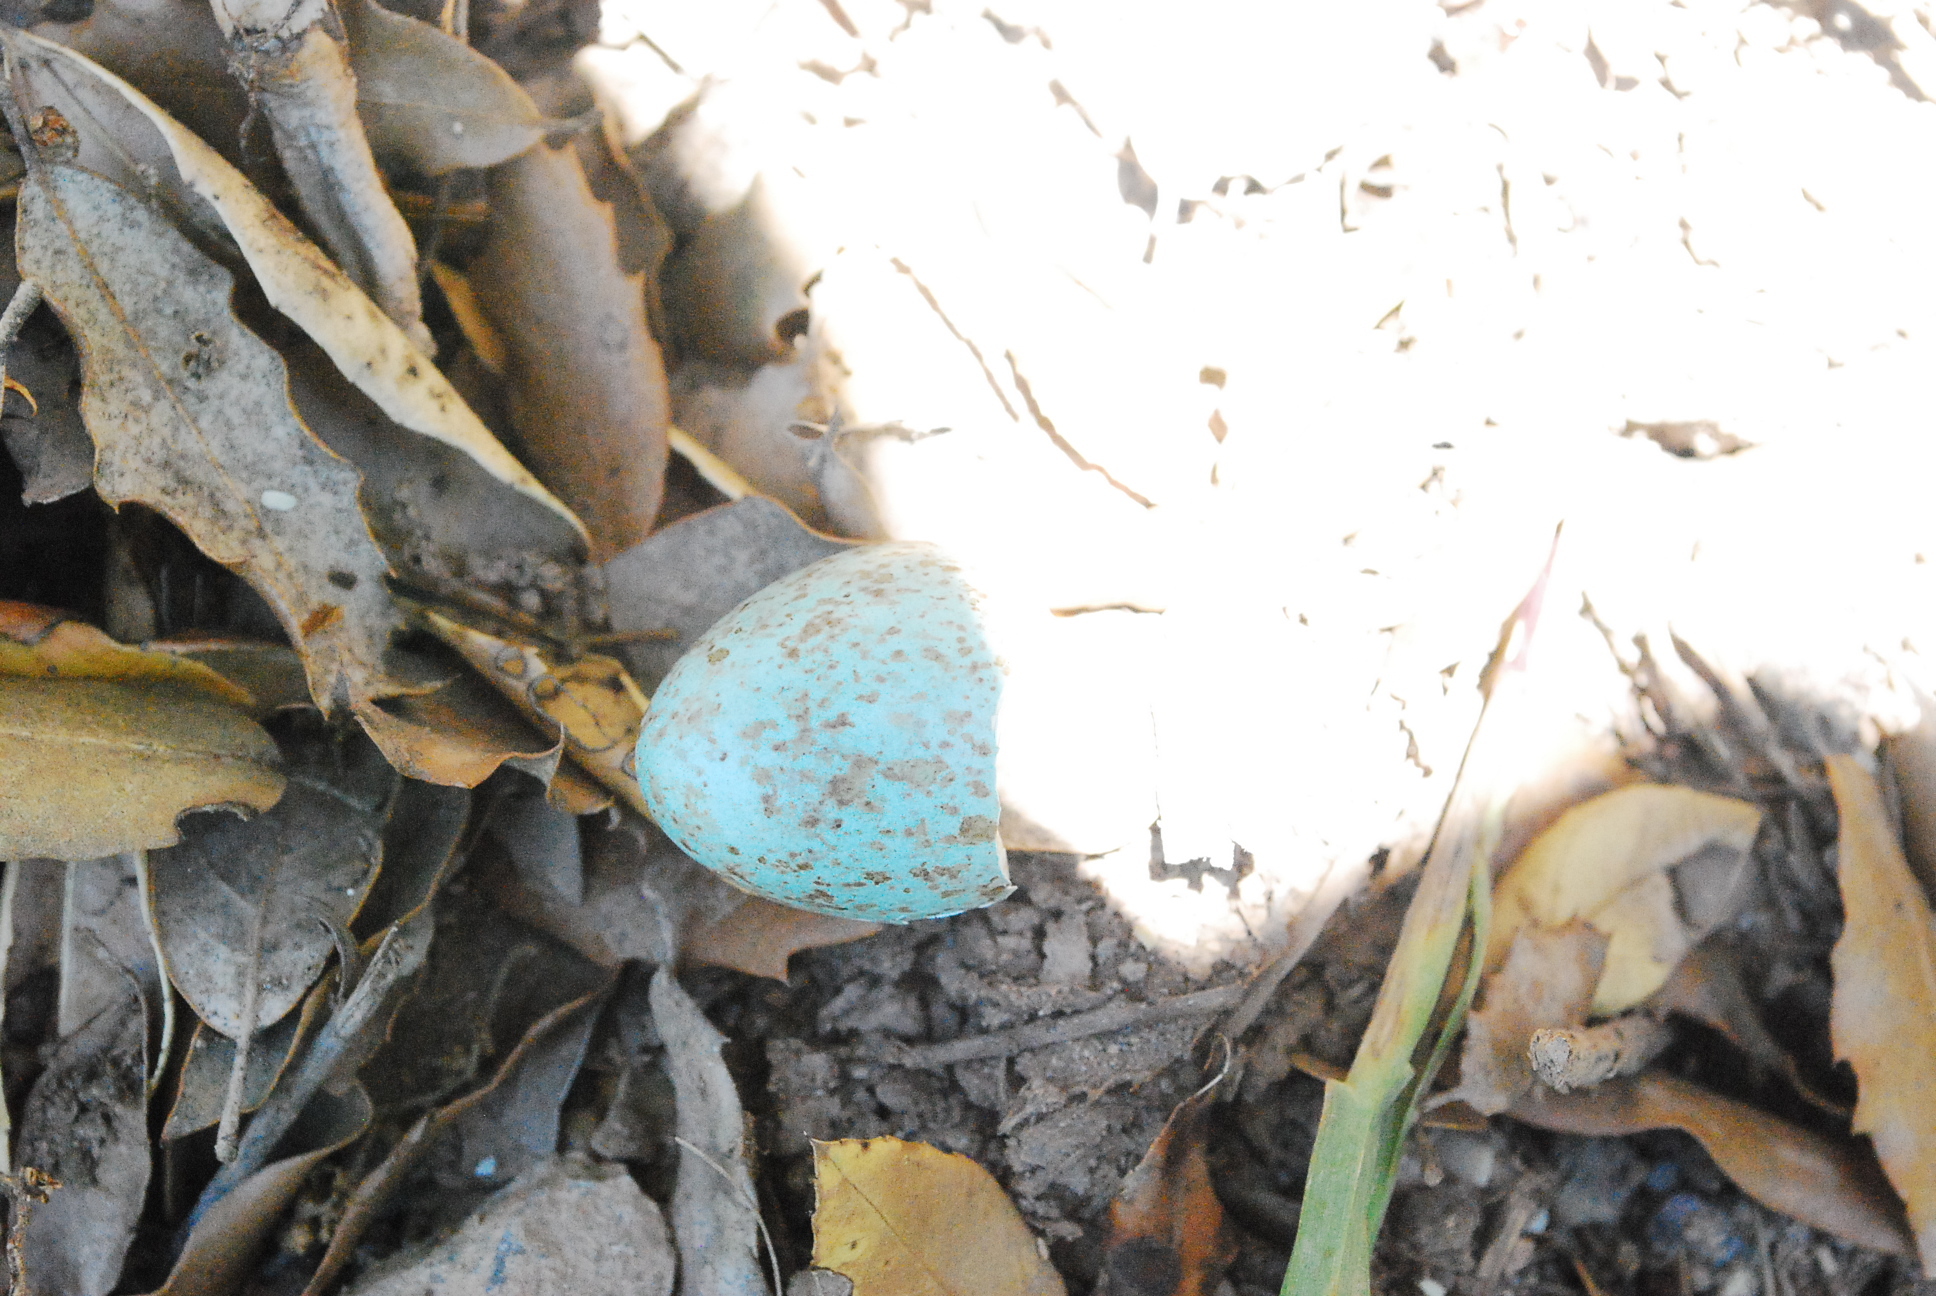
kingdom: Animalia
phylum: Chordata
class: Aves
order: Passeriformes
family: Turdidae
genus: Turdus
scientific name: Turdus merula
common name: Common blackbird
